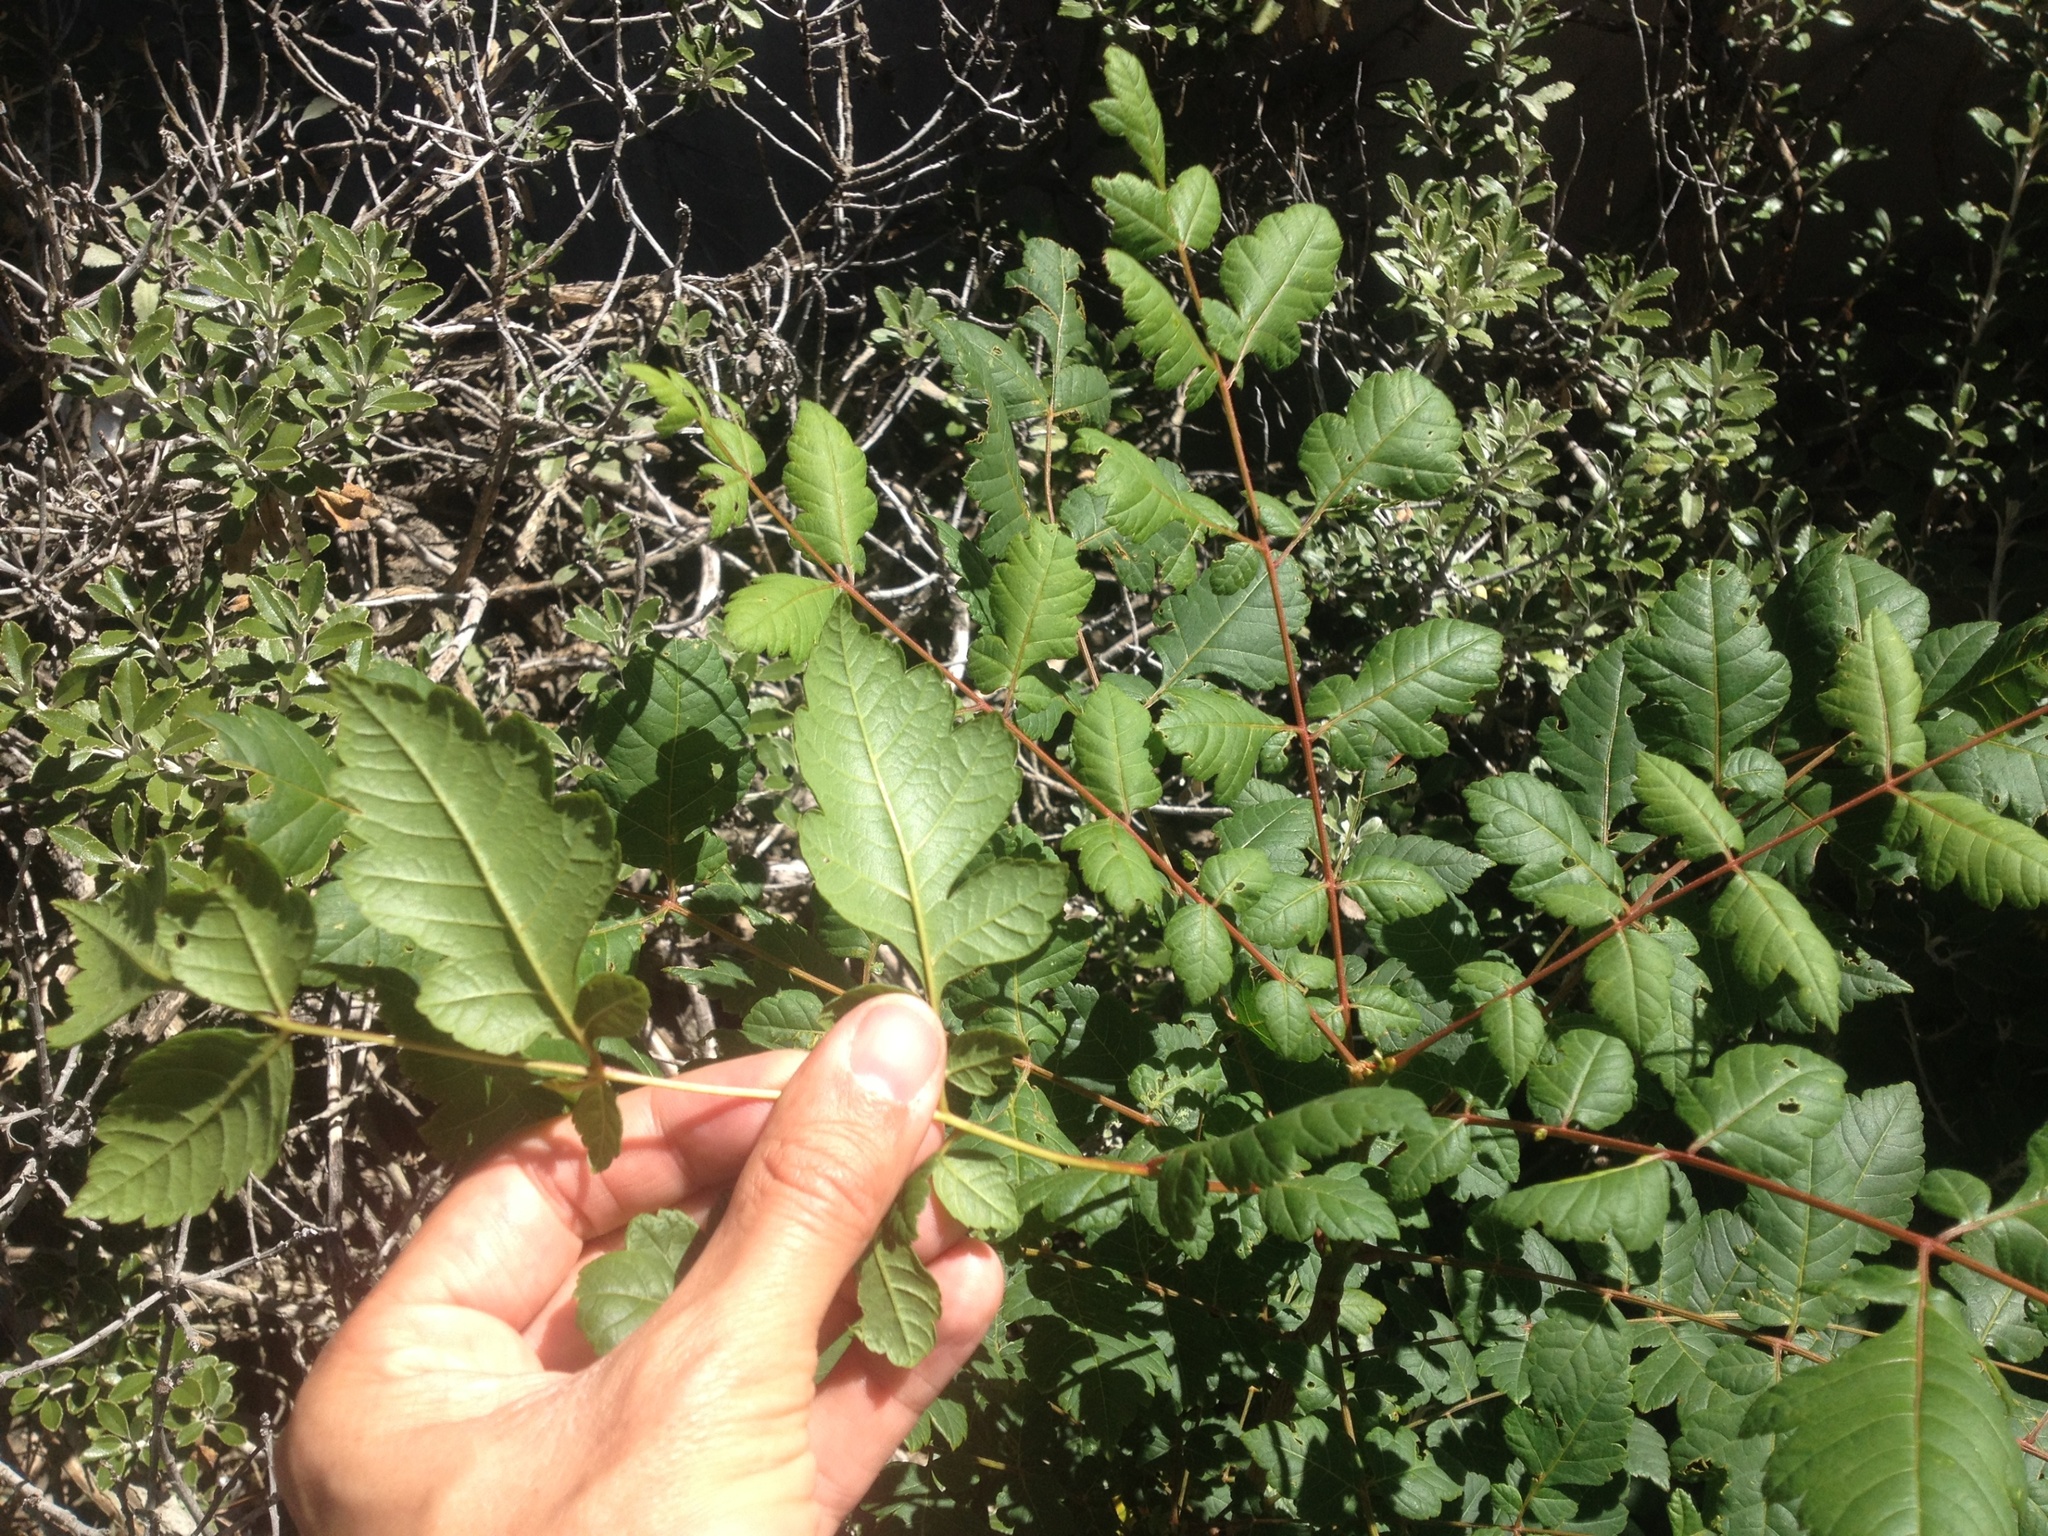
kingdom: Plantae
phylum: Tracheophyta
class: Magnoliopsida
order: Sapindales
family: Sapindaceae
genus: Koelreuteria
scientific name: Koelreuteria paniculata
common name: Pride-of-india
